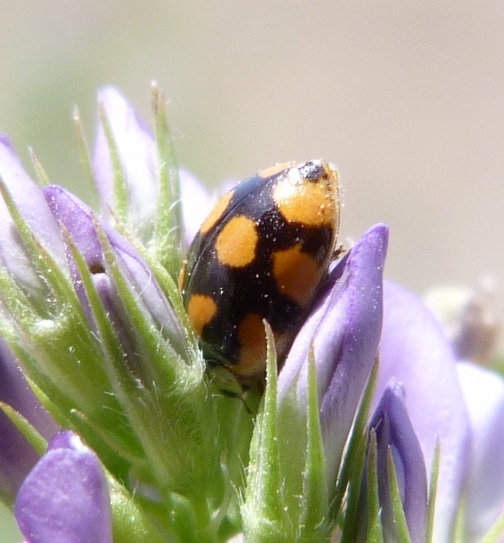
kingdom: Animalia
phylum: Arthropoda
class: Insecta
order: Coleoptera
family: Coccinellidae
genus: Adalia
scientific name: Adalia decempunctata
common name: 10-spot ladybird
